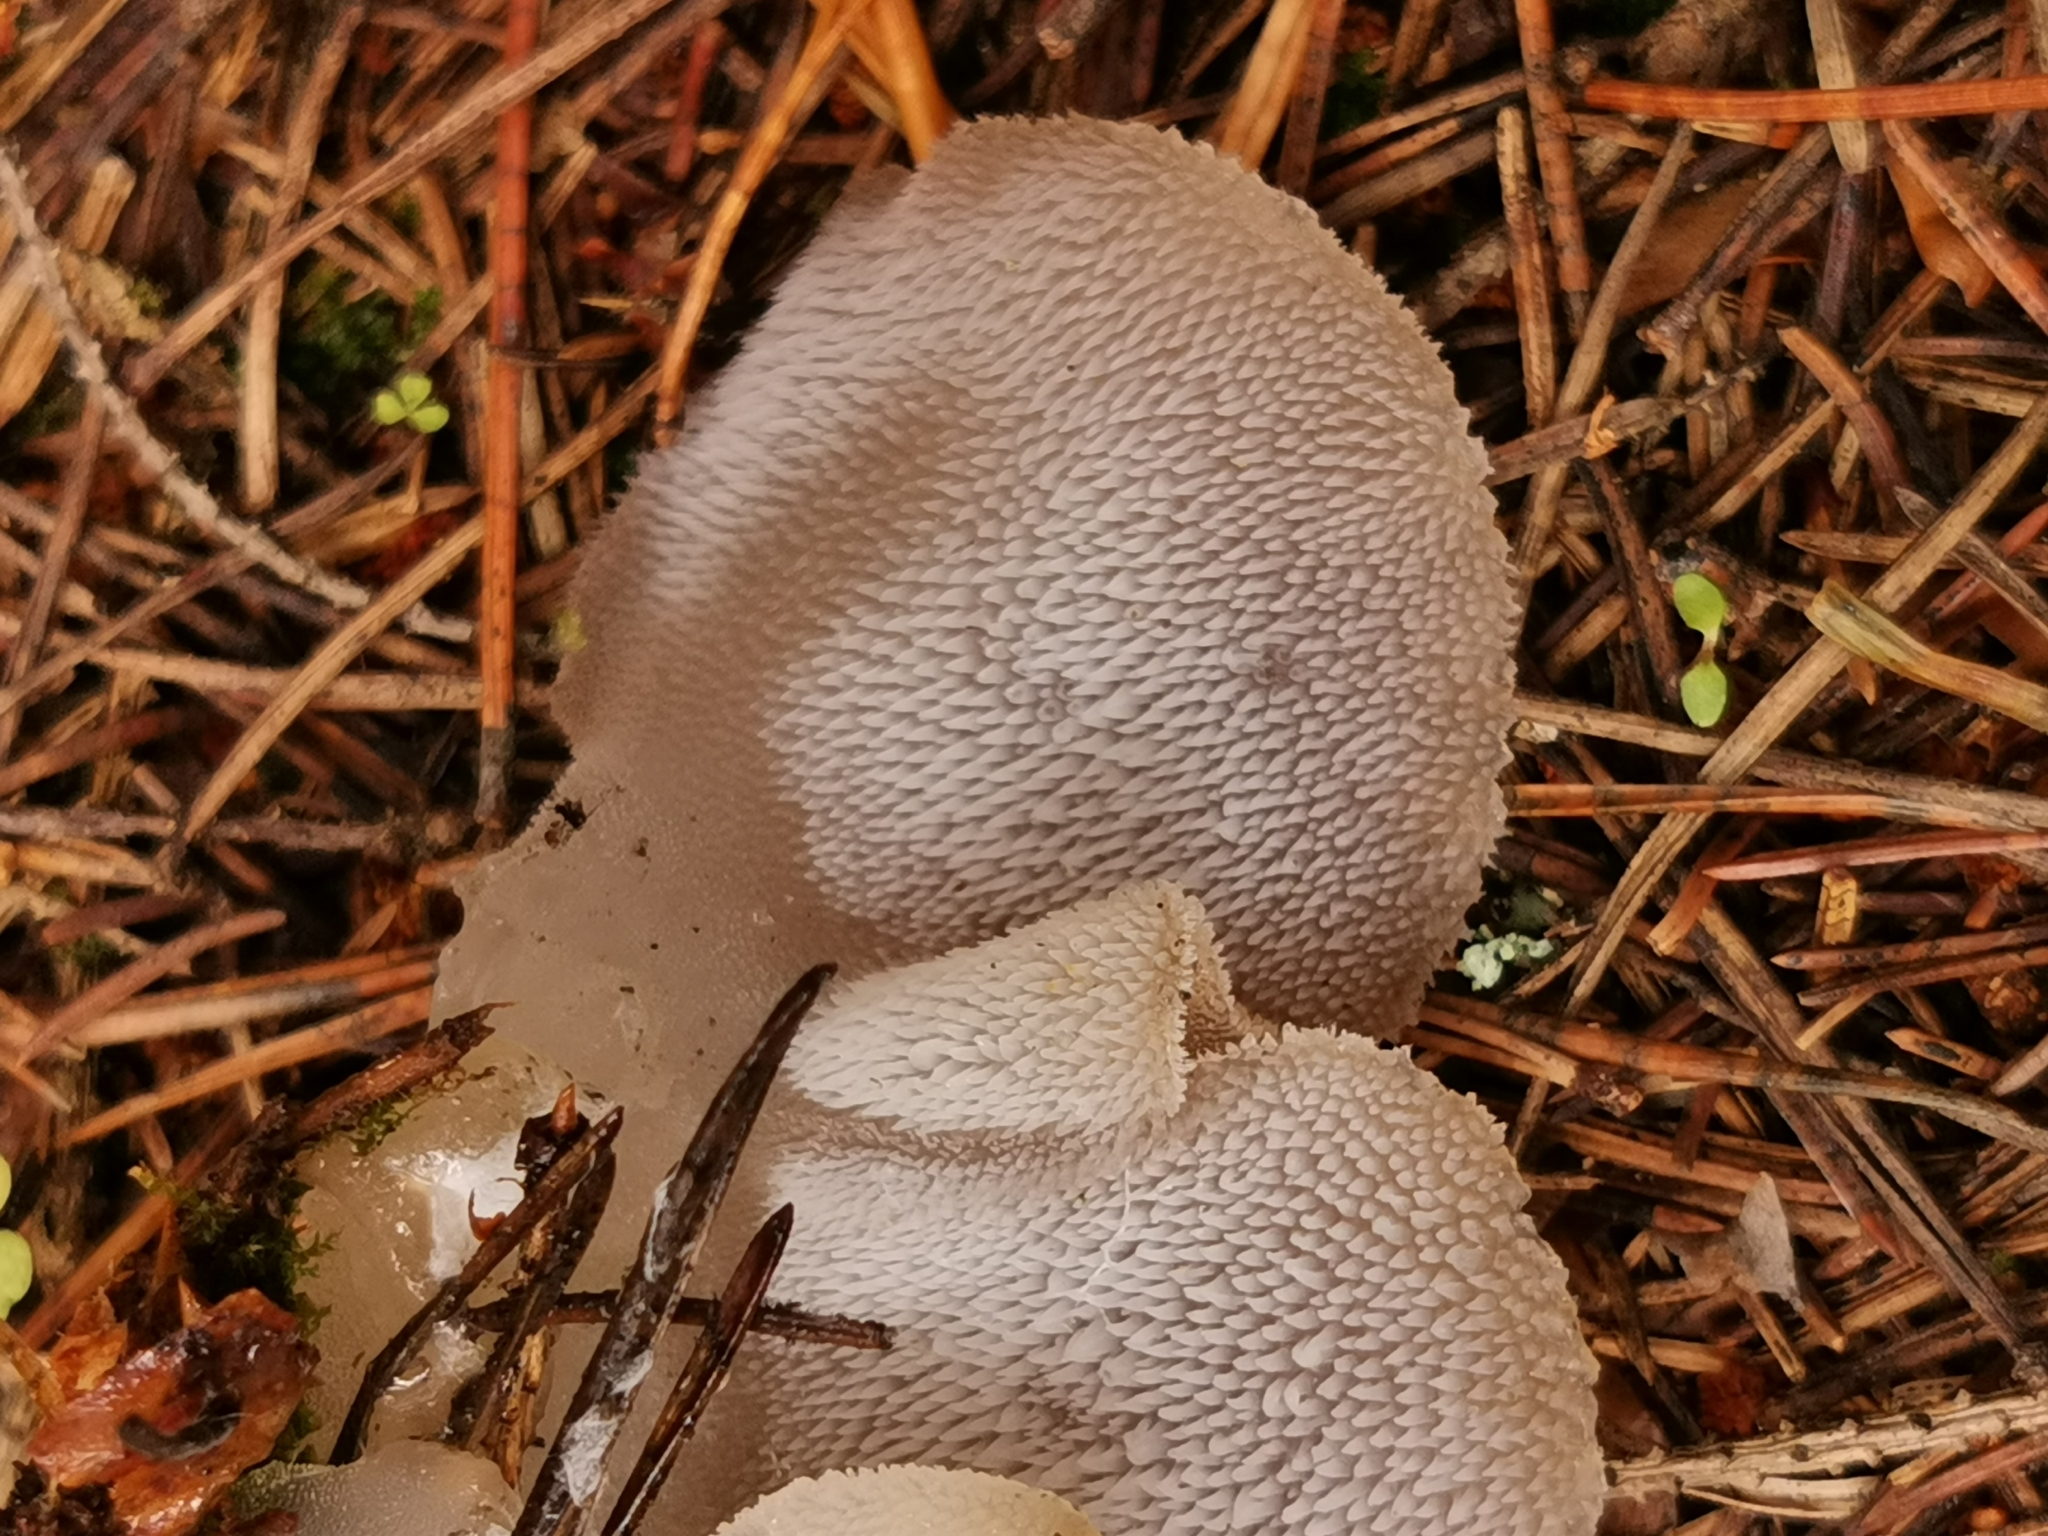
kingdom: Fungi
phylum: Basidiomycota
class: Agaricomycetes
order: Auriculariales
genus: Pseudohydnum
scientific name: Pseudohydnum gelatinosum
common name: Jelly tongue
